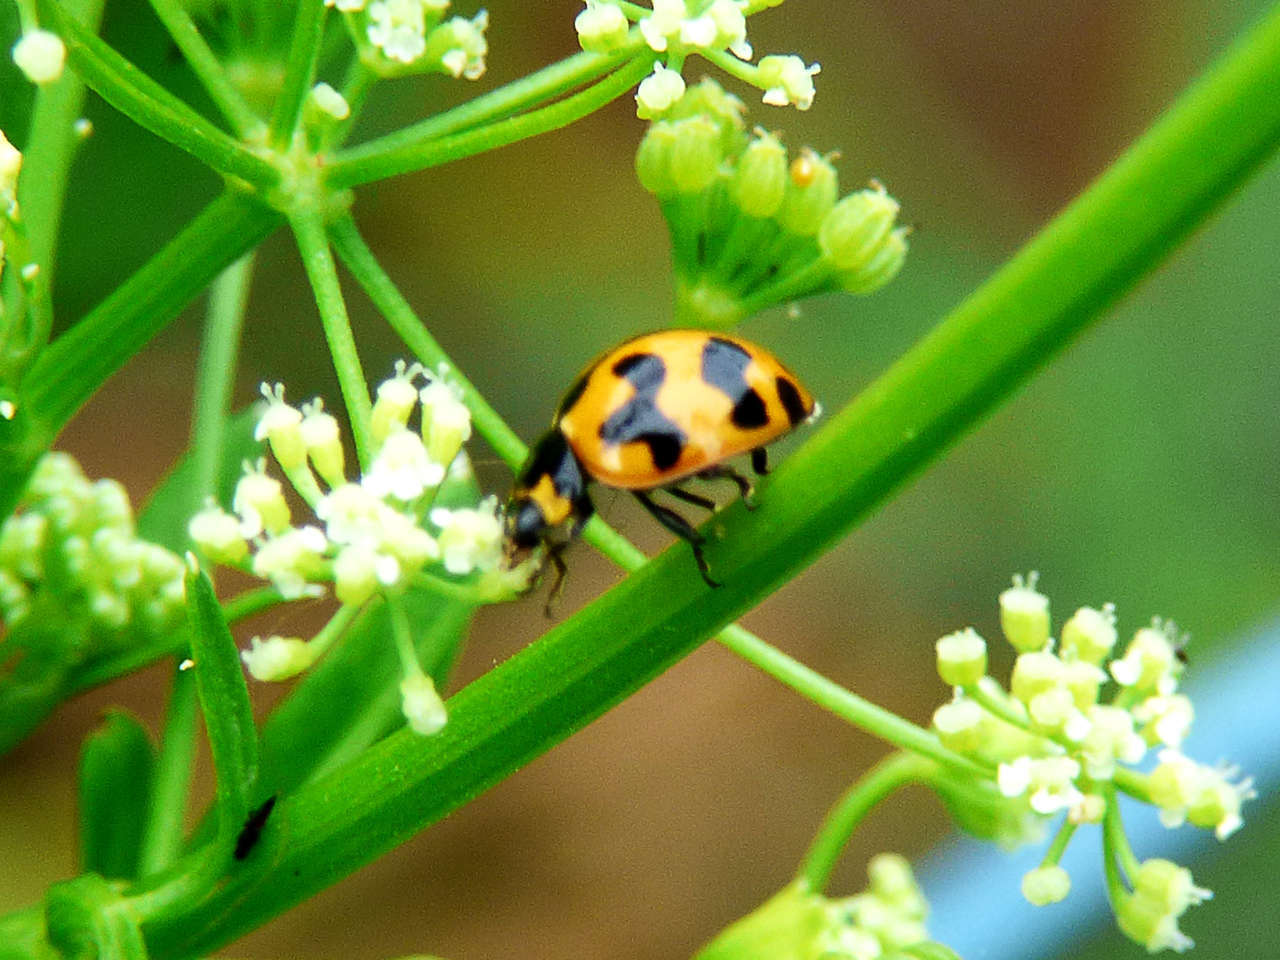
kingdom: Animalia
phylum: Arthropoda
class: Insecta
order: Coleoptera
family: Coccinellidae
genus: Coccinella
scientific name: Coccinella transversalis
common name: Transverse lady beetle
